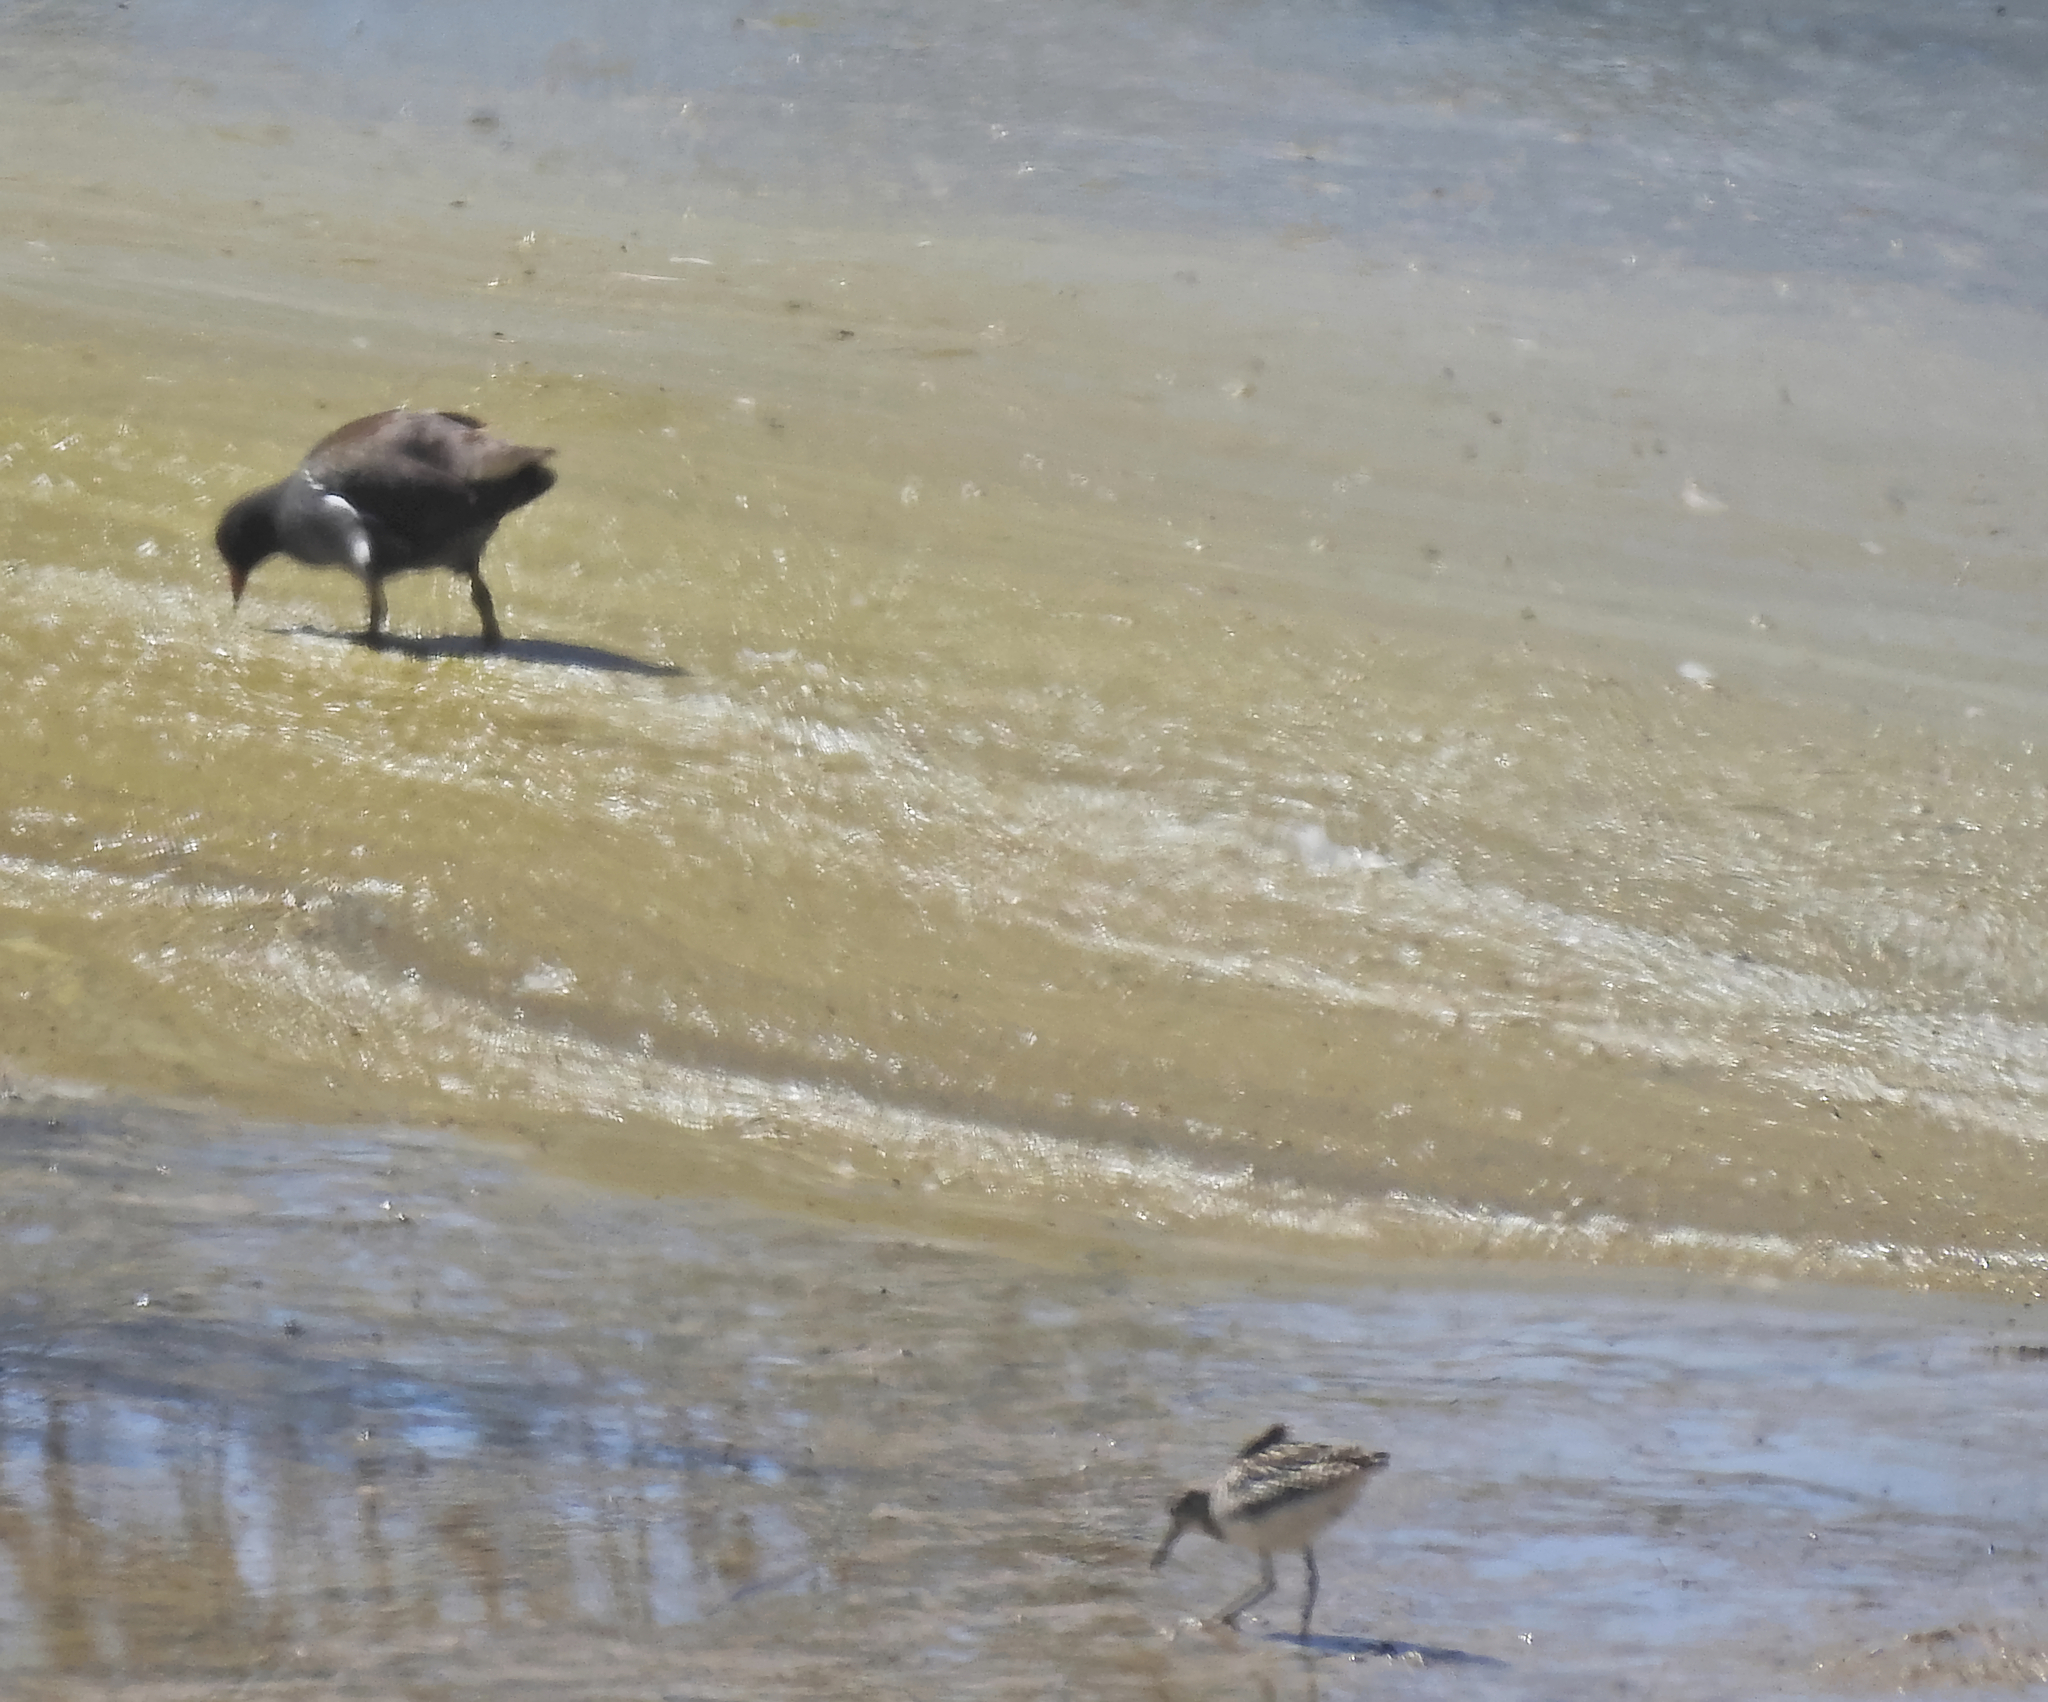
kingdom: Animalia
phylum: Chordata
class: Aves
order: Charadriiformes
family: Scolopacidae
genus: Tringa
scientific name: Tringa glareola
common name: Wood sandpiper
